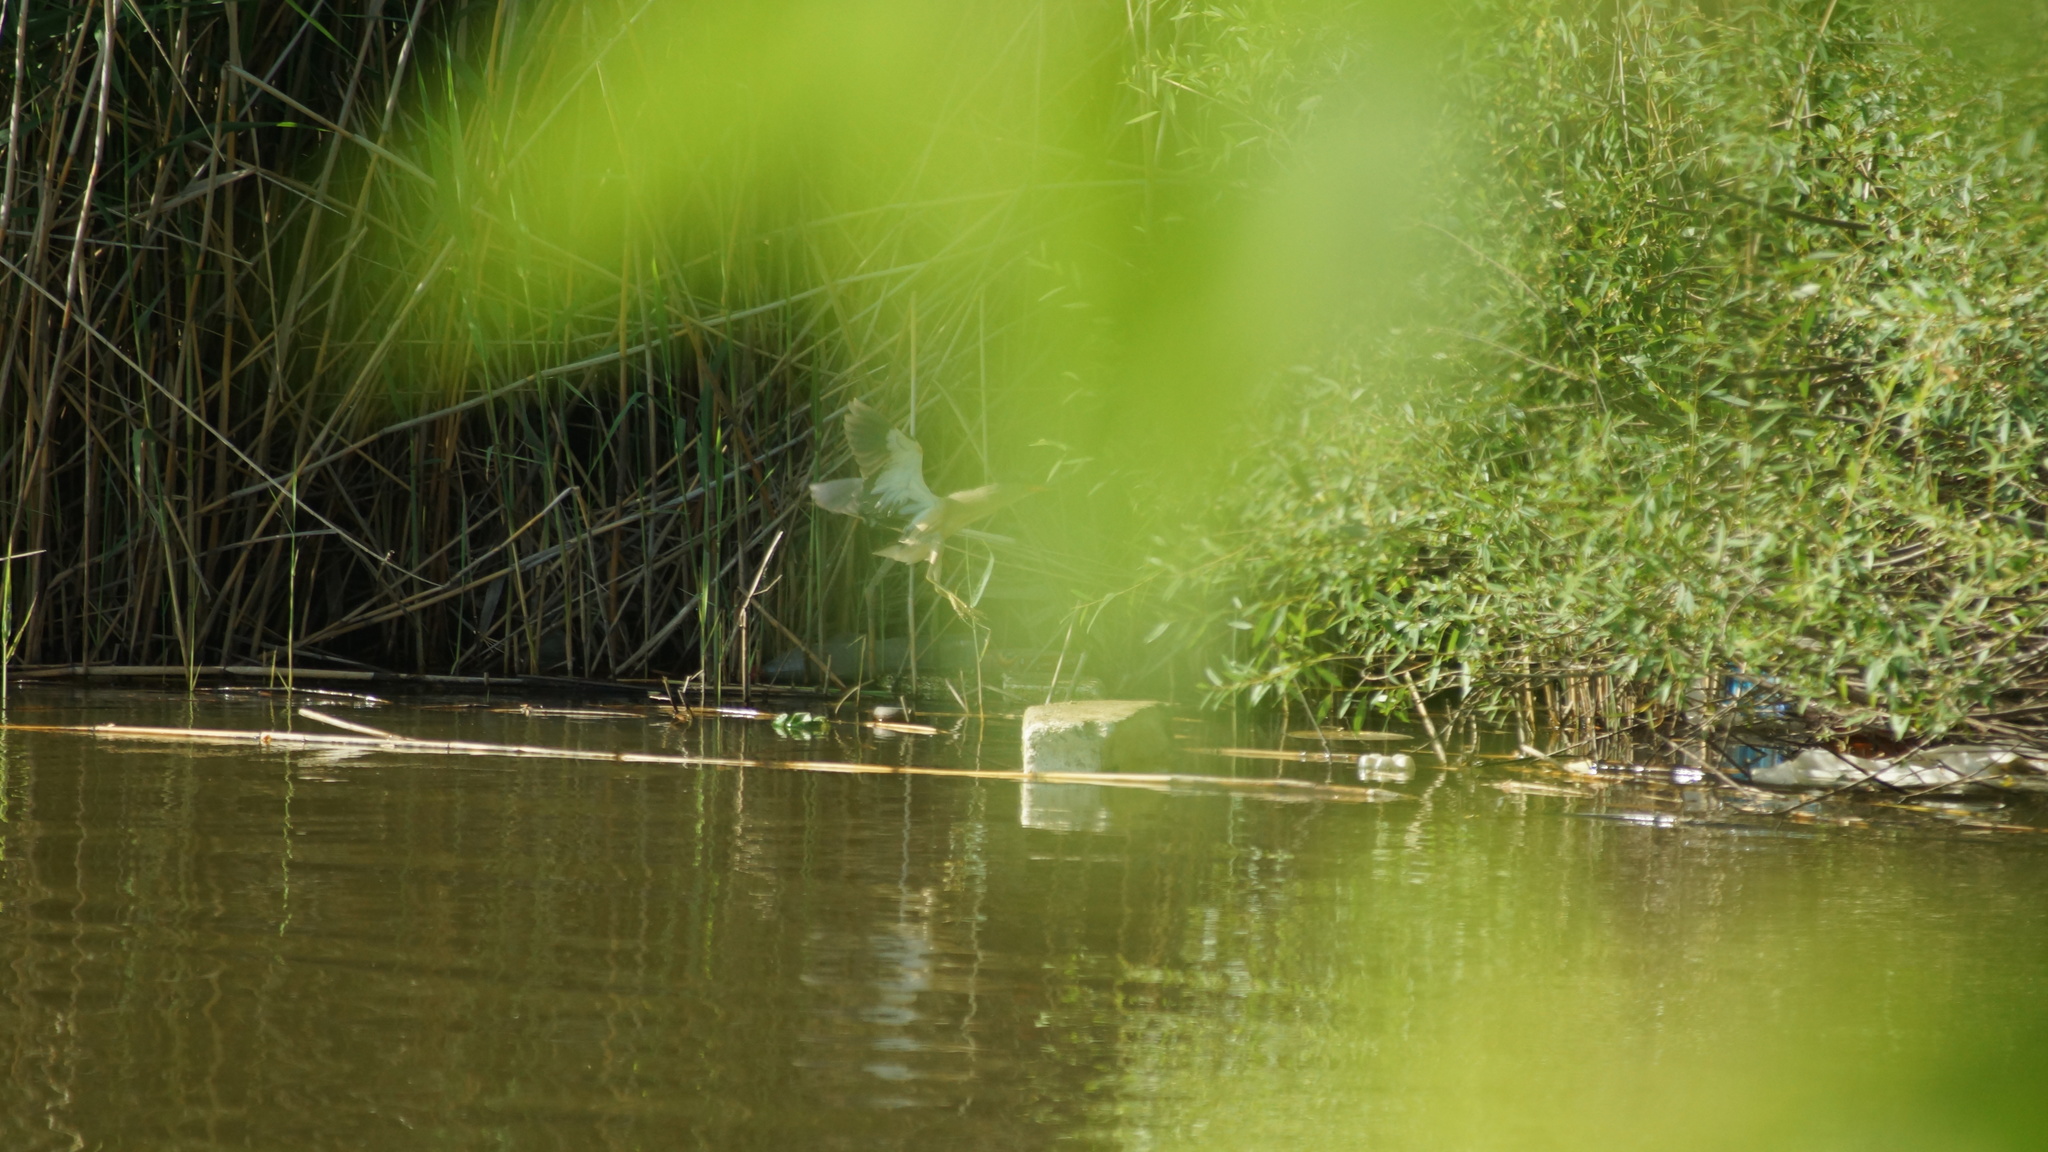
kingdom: Animalia
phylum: Chordata
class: Aves
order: Pelecaniformes
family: Ardeidae
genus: Ixobrychus
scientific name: Ixobrychus minutus
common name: Little bittern
